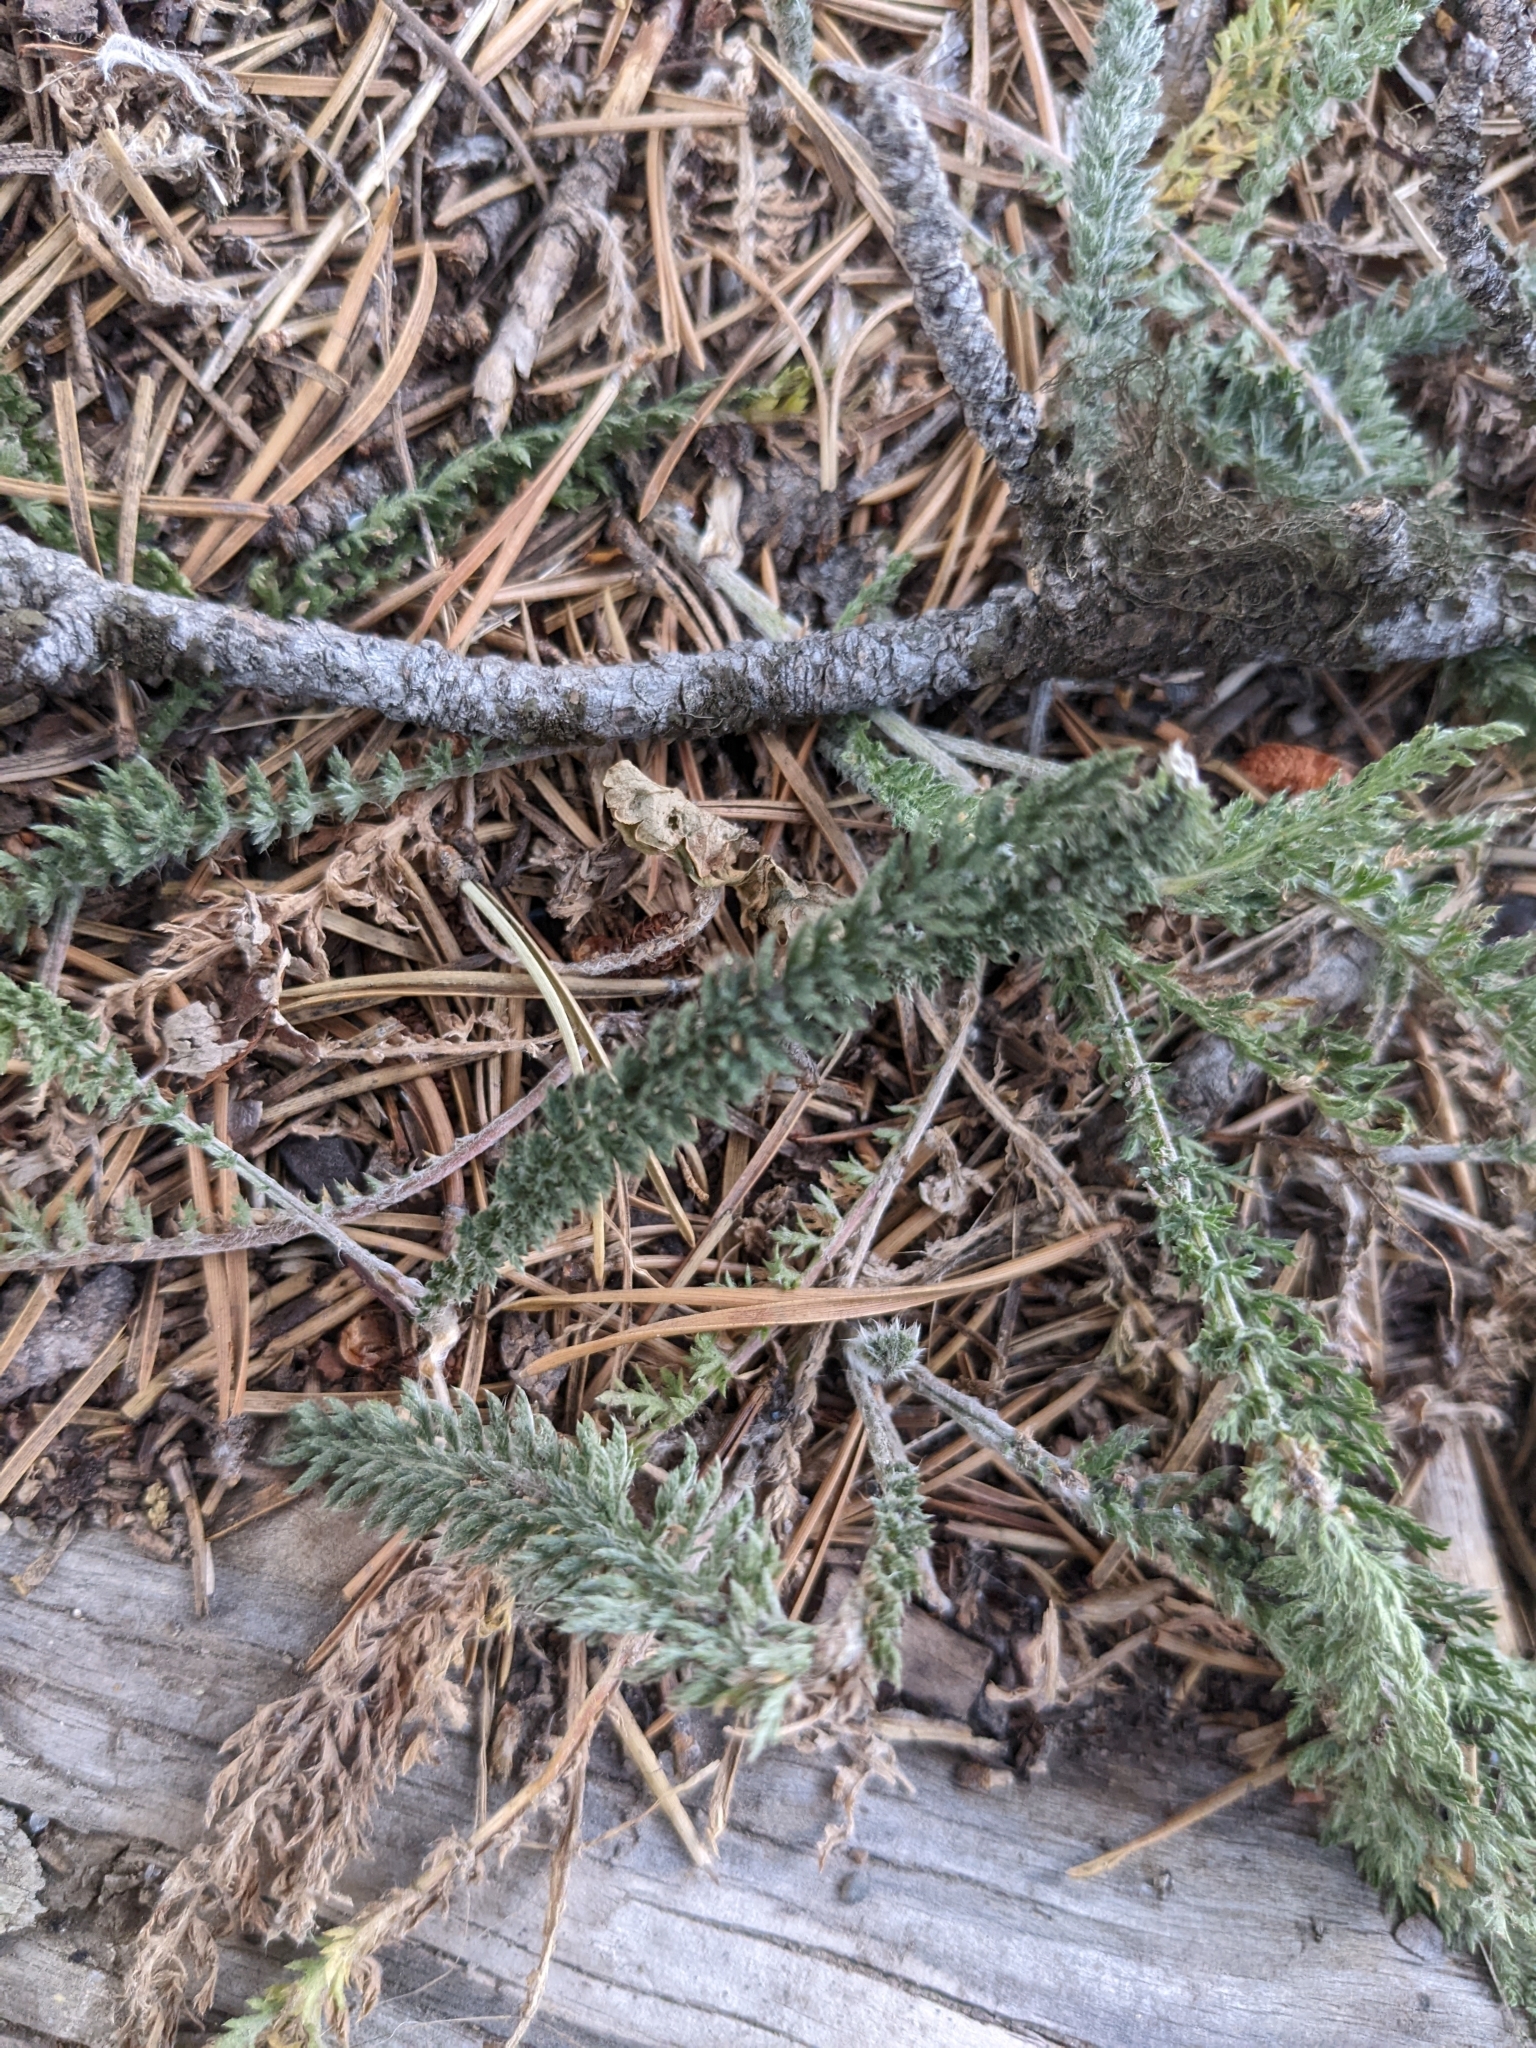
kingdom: Plantae
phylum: Tracheophyta
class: Magnoliopsida
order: Asterales
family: Asteraceae
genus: Achillea
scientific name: Achillea millefolium
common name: Yarrow
